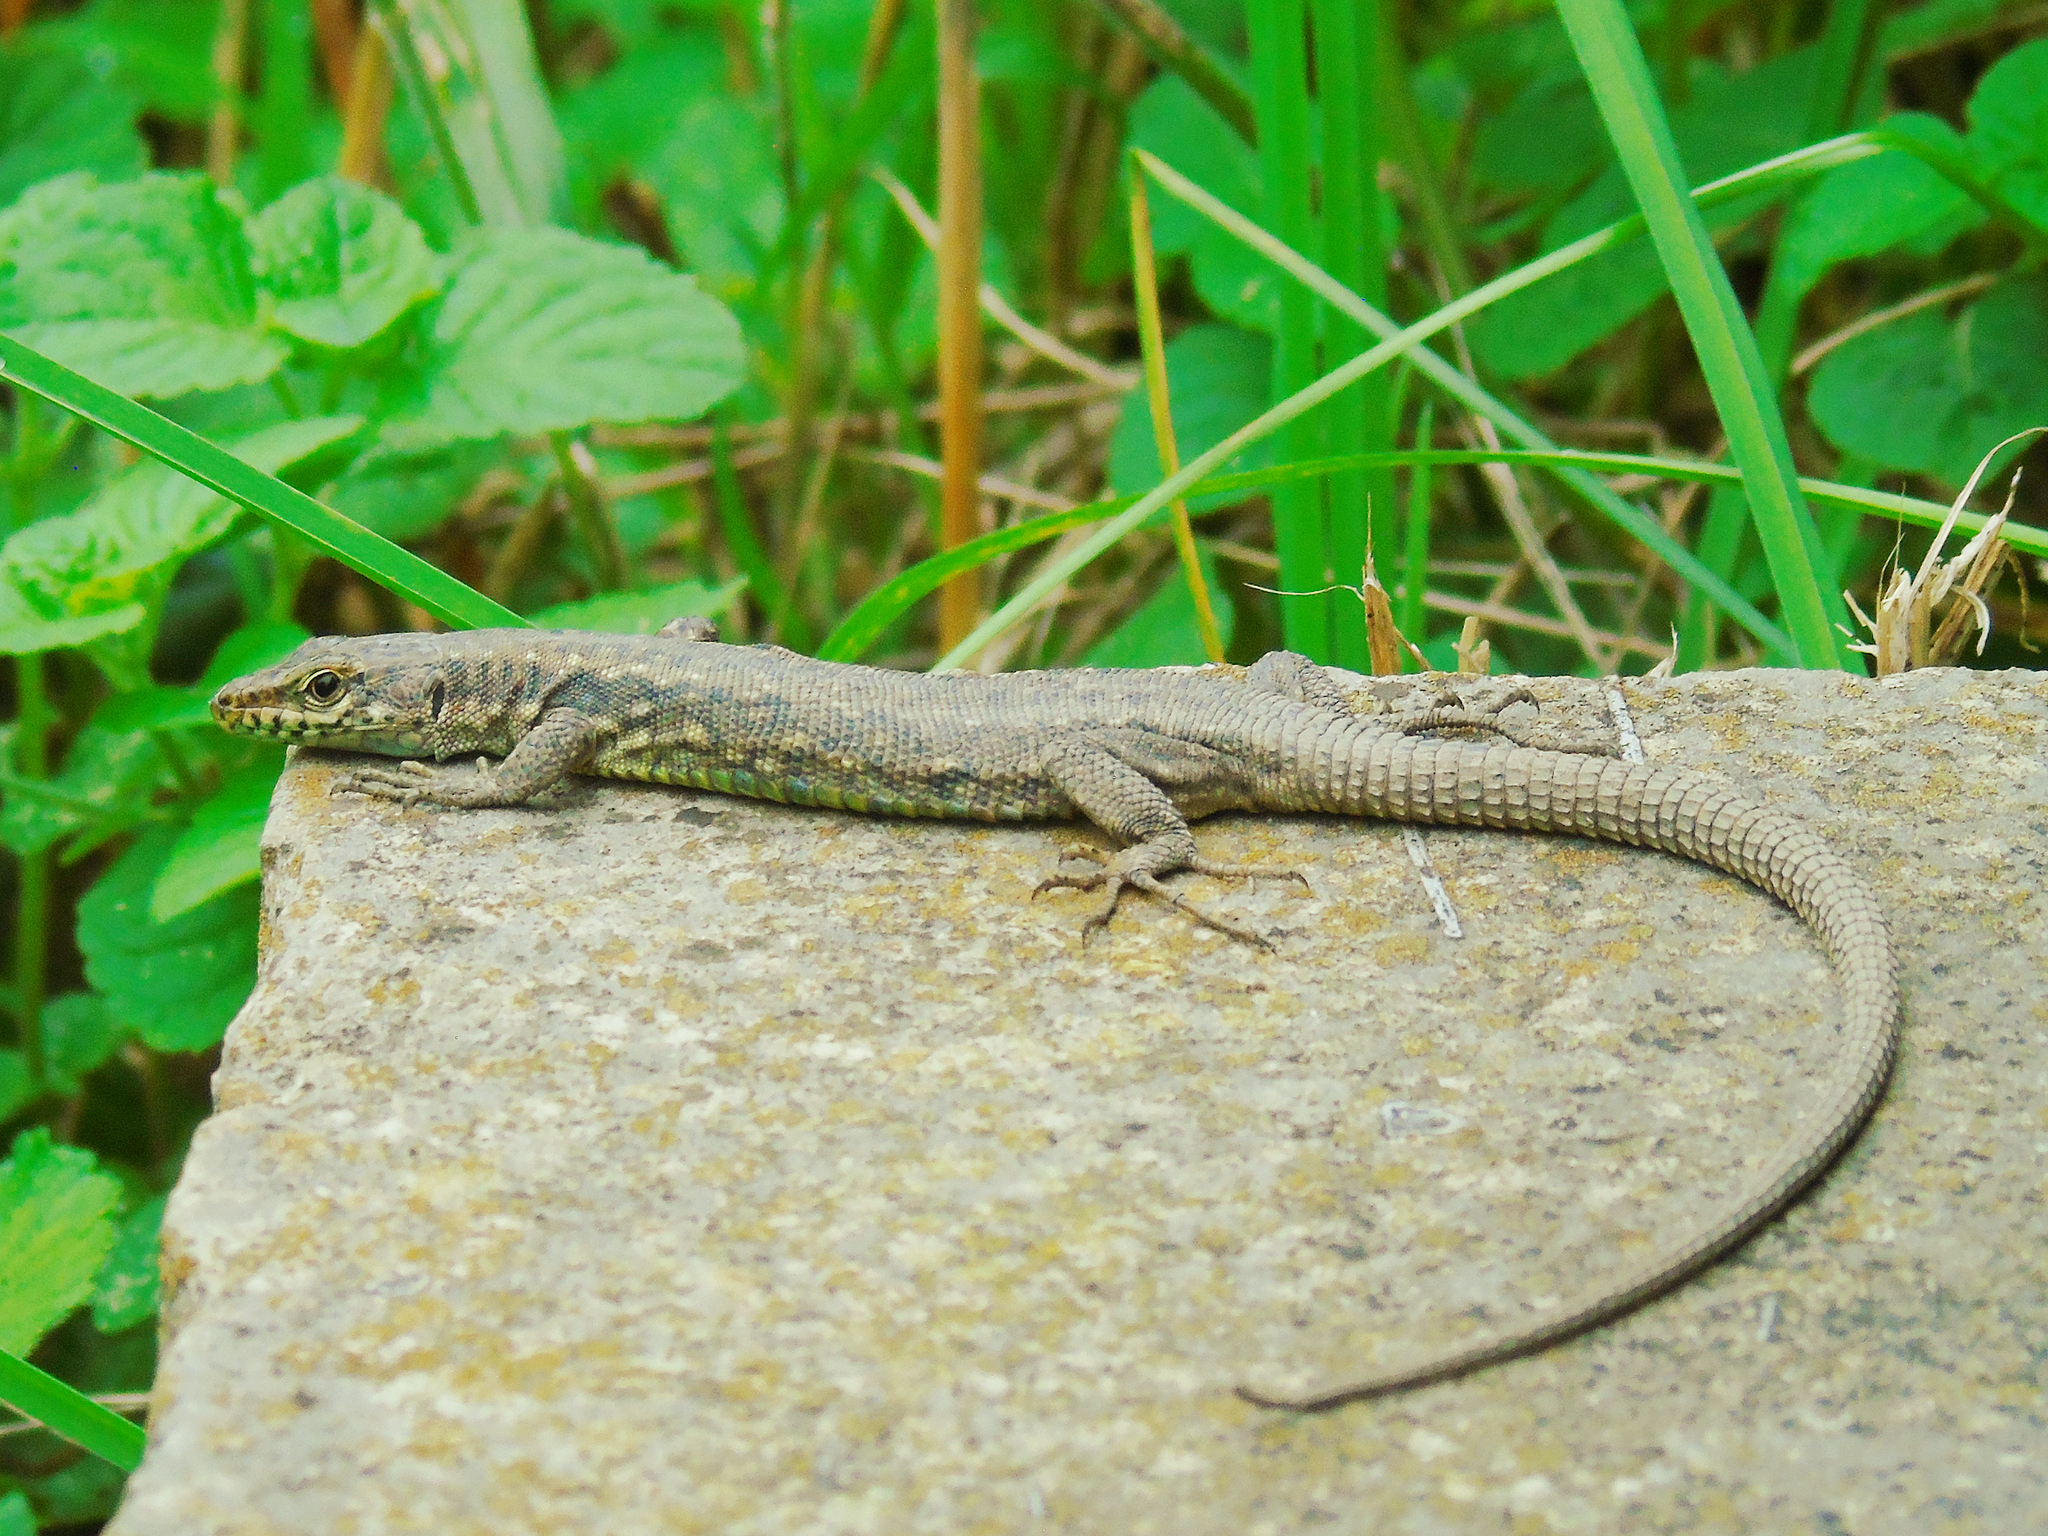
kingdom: Animalia
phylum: Chordata
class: Squamata
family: Lacertidae
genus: Darevskia
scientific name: Darevskia rudis
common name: Spiny-tailed lizard
